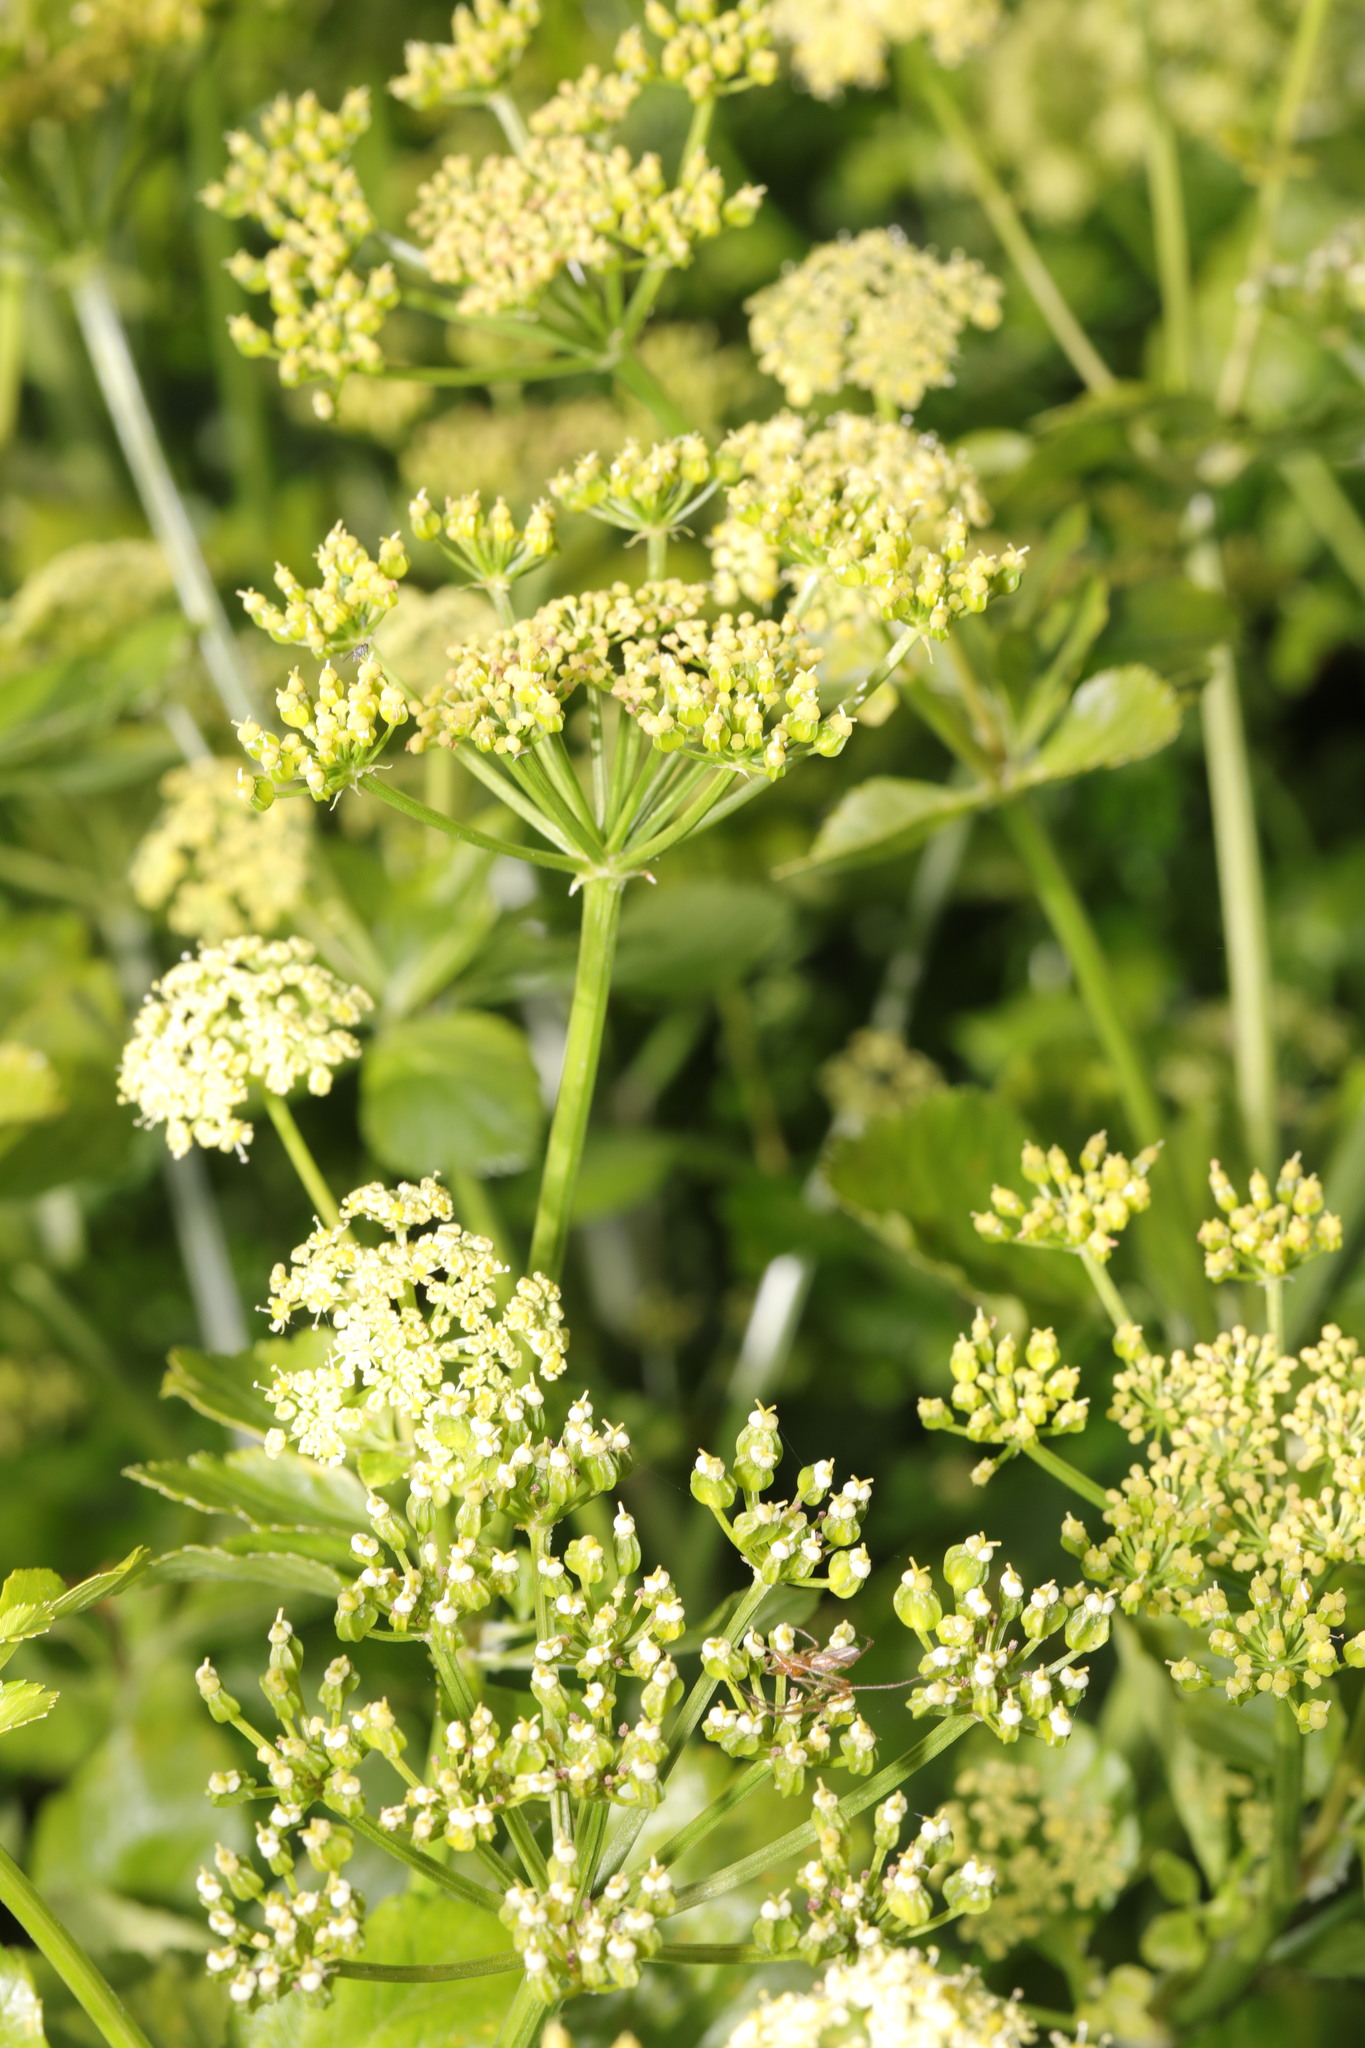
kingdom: Plantae
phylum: Tracheophyta
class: Magnoliopsida
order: Apiales
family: Apiaceae
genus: Smyrnium
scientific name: Smyrnium olusatrum
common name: Alexanders
